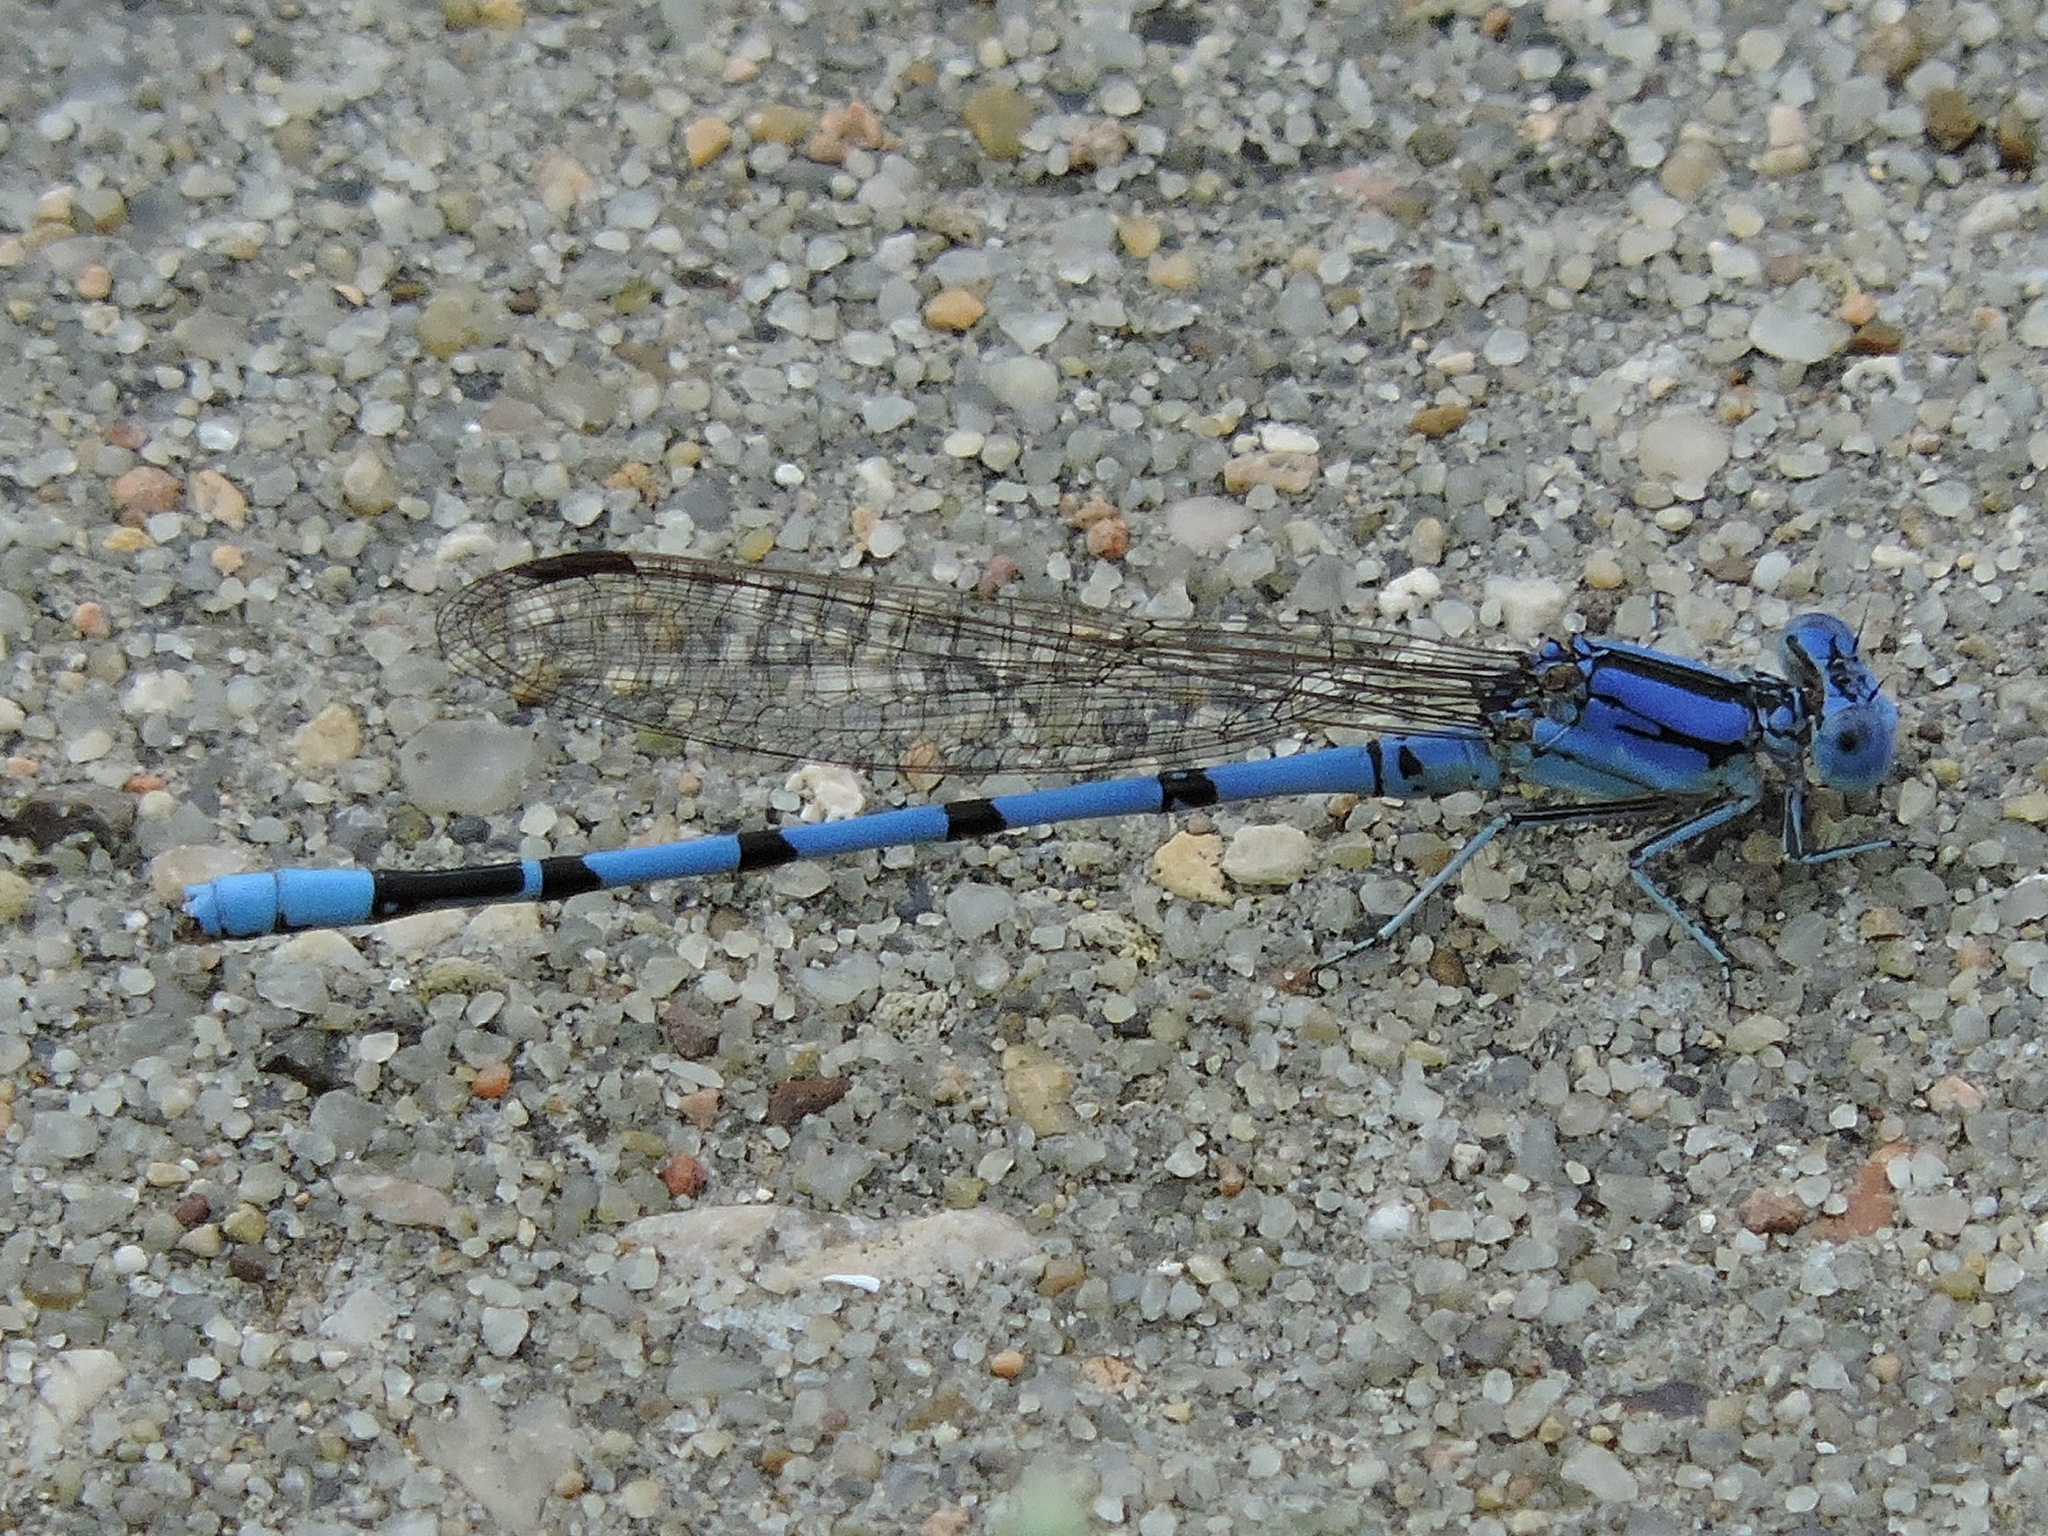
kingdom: Animalia
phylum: Arthropoda
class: Insecta
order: Odonata
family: Coenagrionidae
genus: Argia
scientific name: Argia nahuana
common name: Aztec dancer
